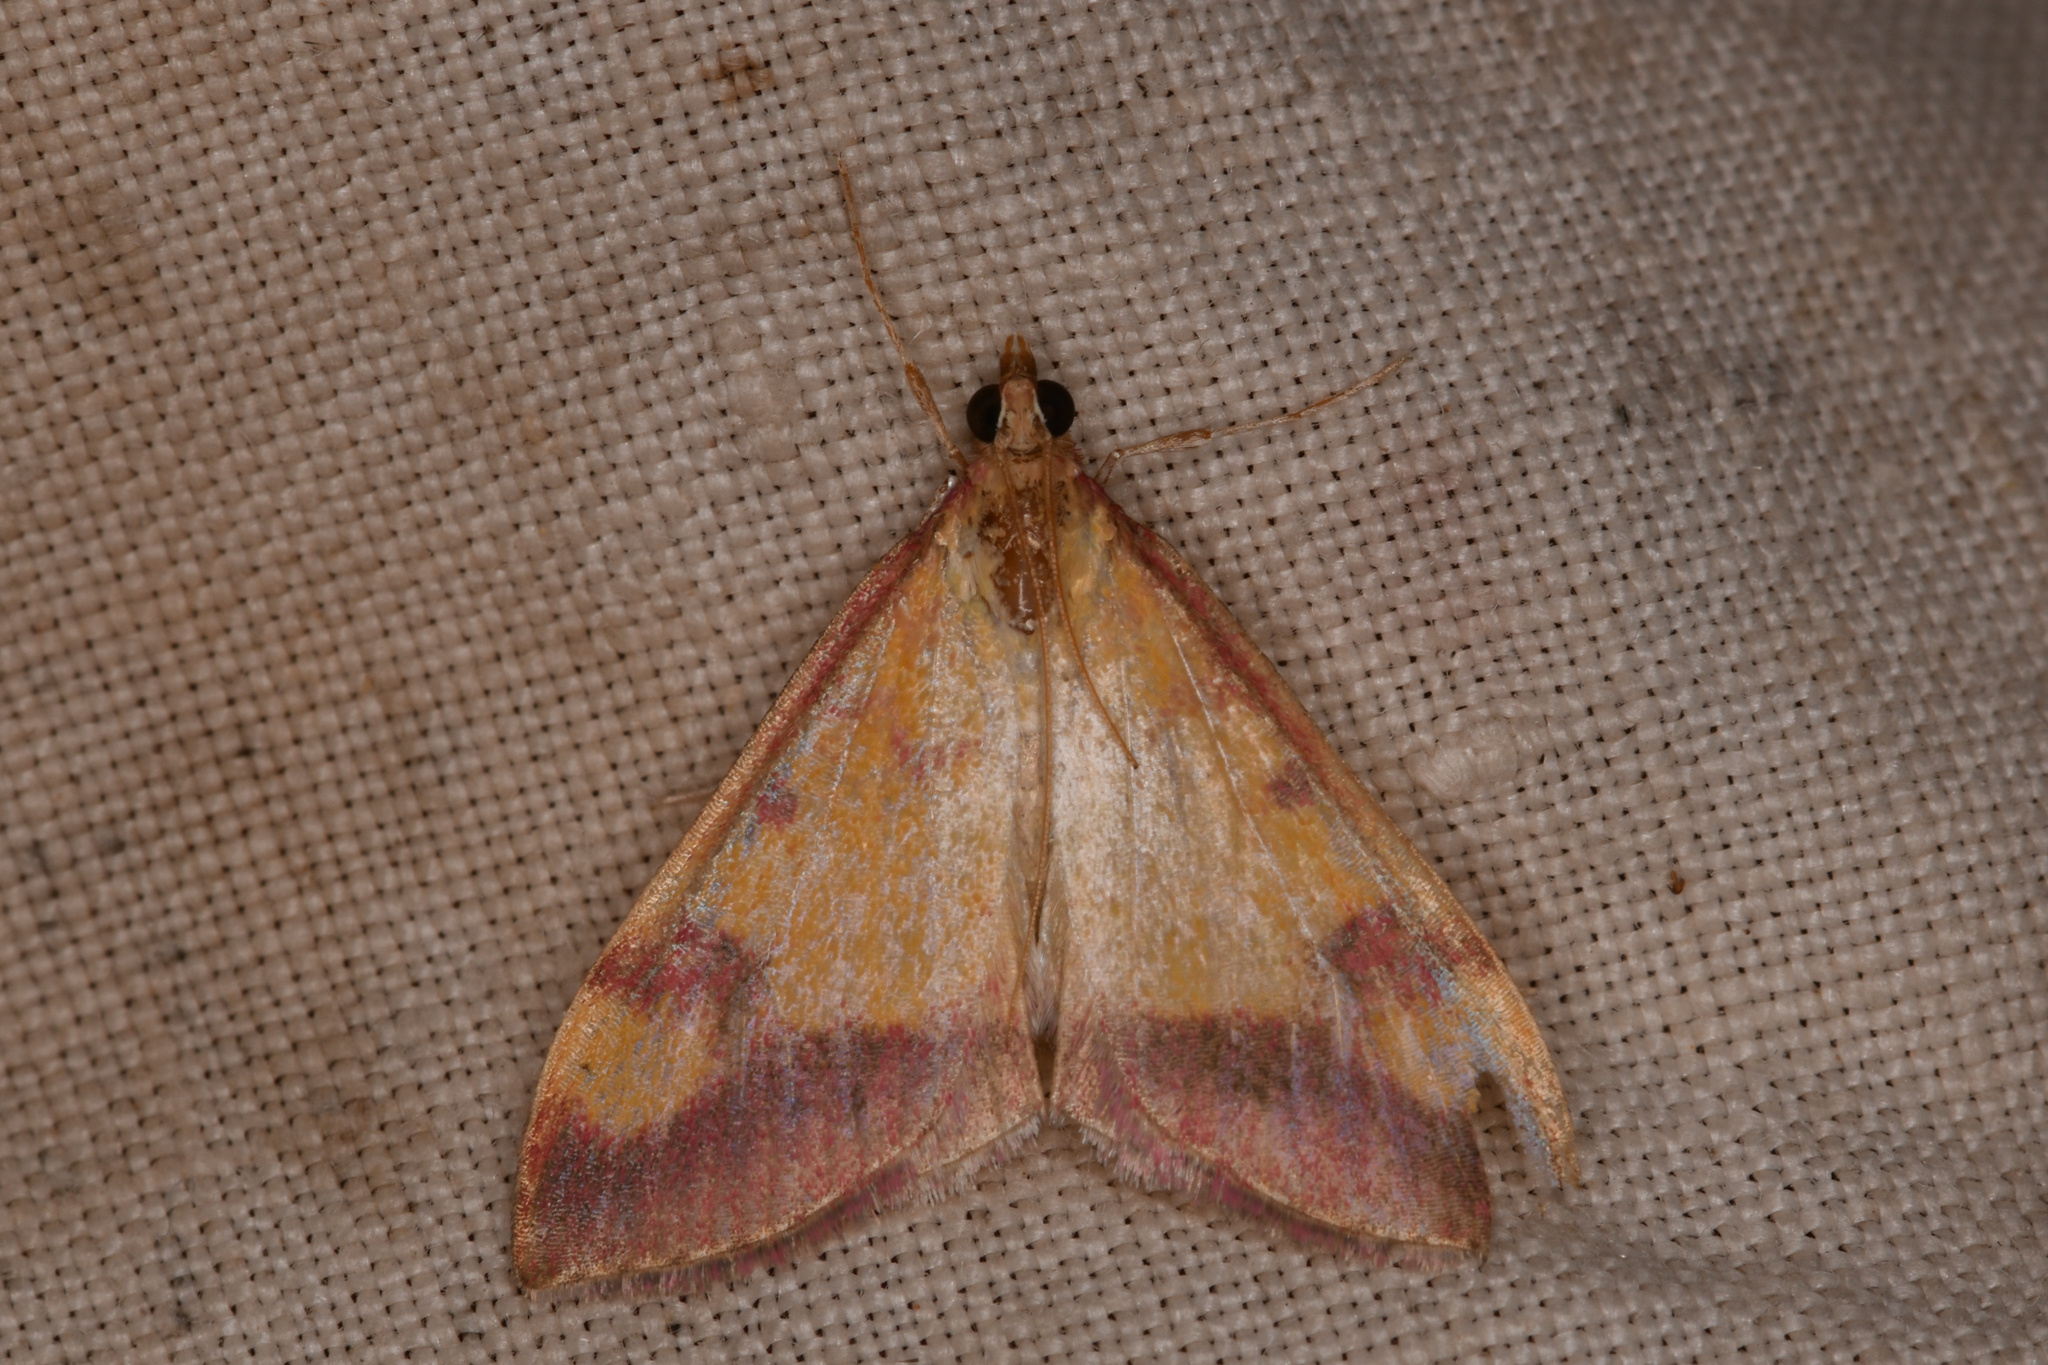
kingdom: Animalia
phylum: Arthropoda
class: Insecta
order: Lepidoptera
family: Crambidae
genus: Pyrausta
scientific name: Pyrausta perrubralis
